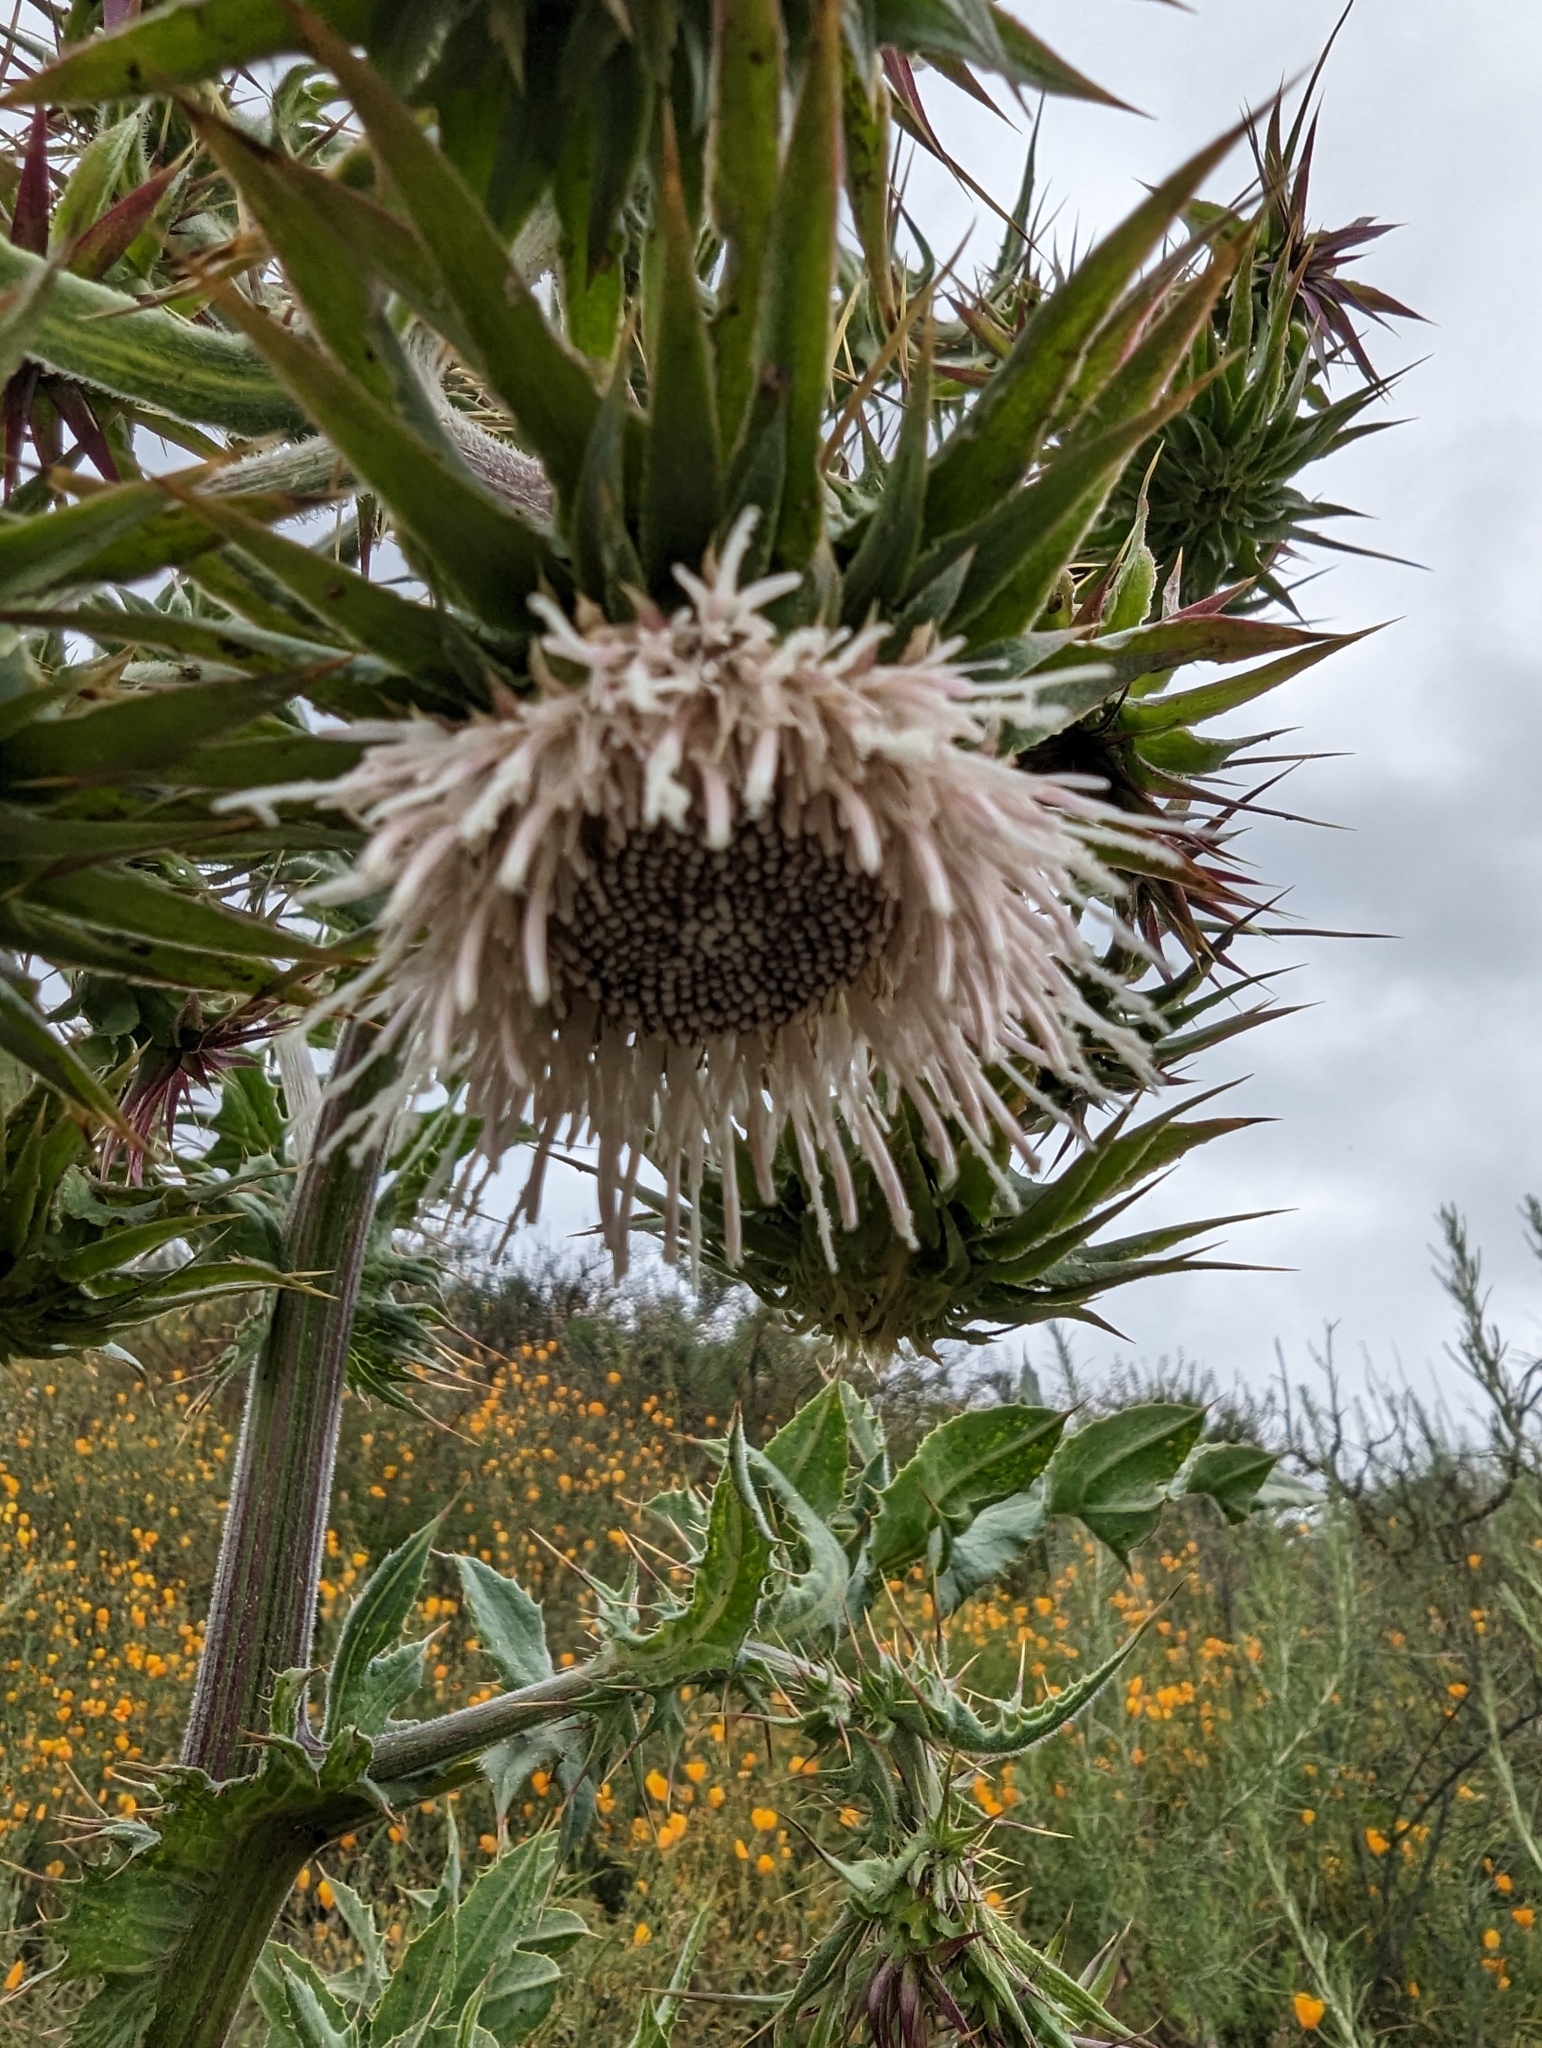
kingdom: Plantae
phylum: Tracheophyta
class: Magnoliopsida
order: Asterales
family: Asteraceae
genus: Cirsium
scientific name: Cirsium fontinale
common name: Fountain thistle
